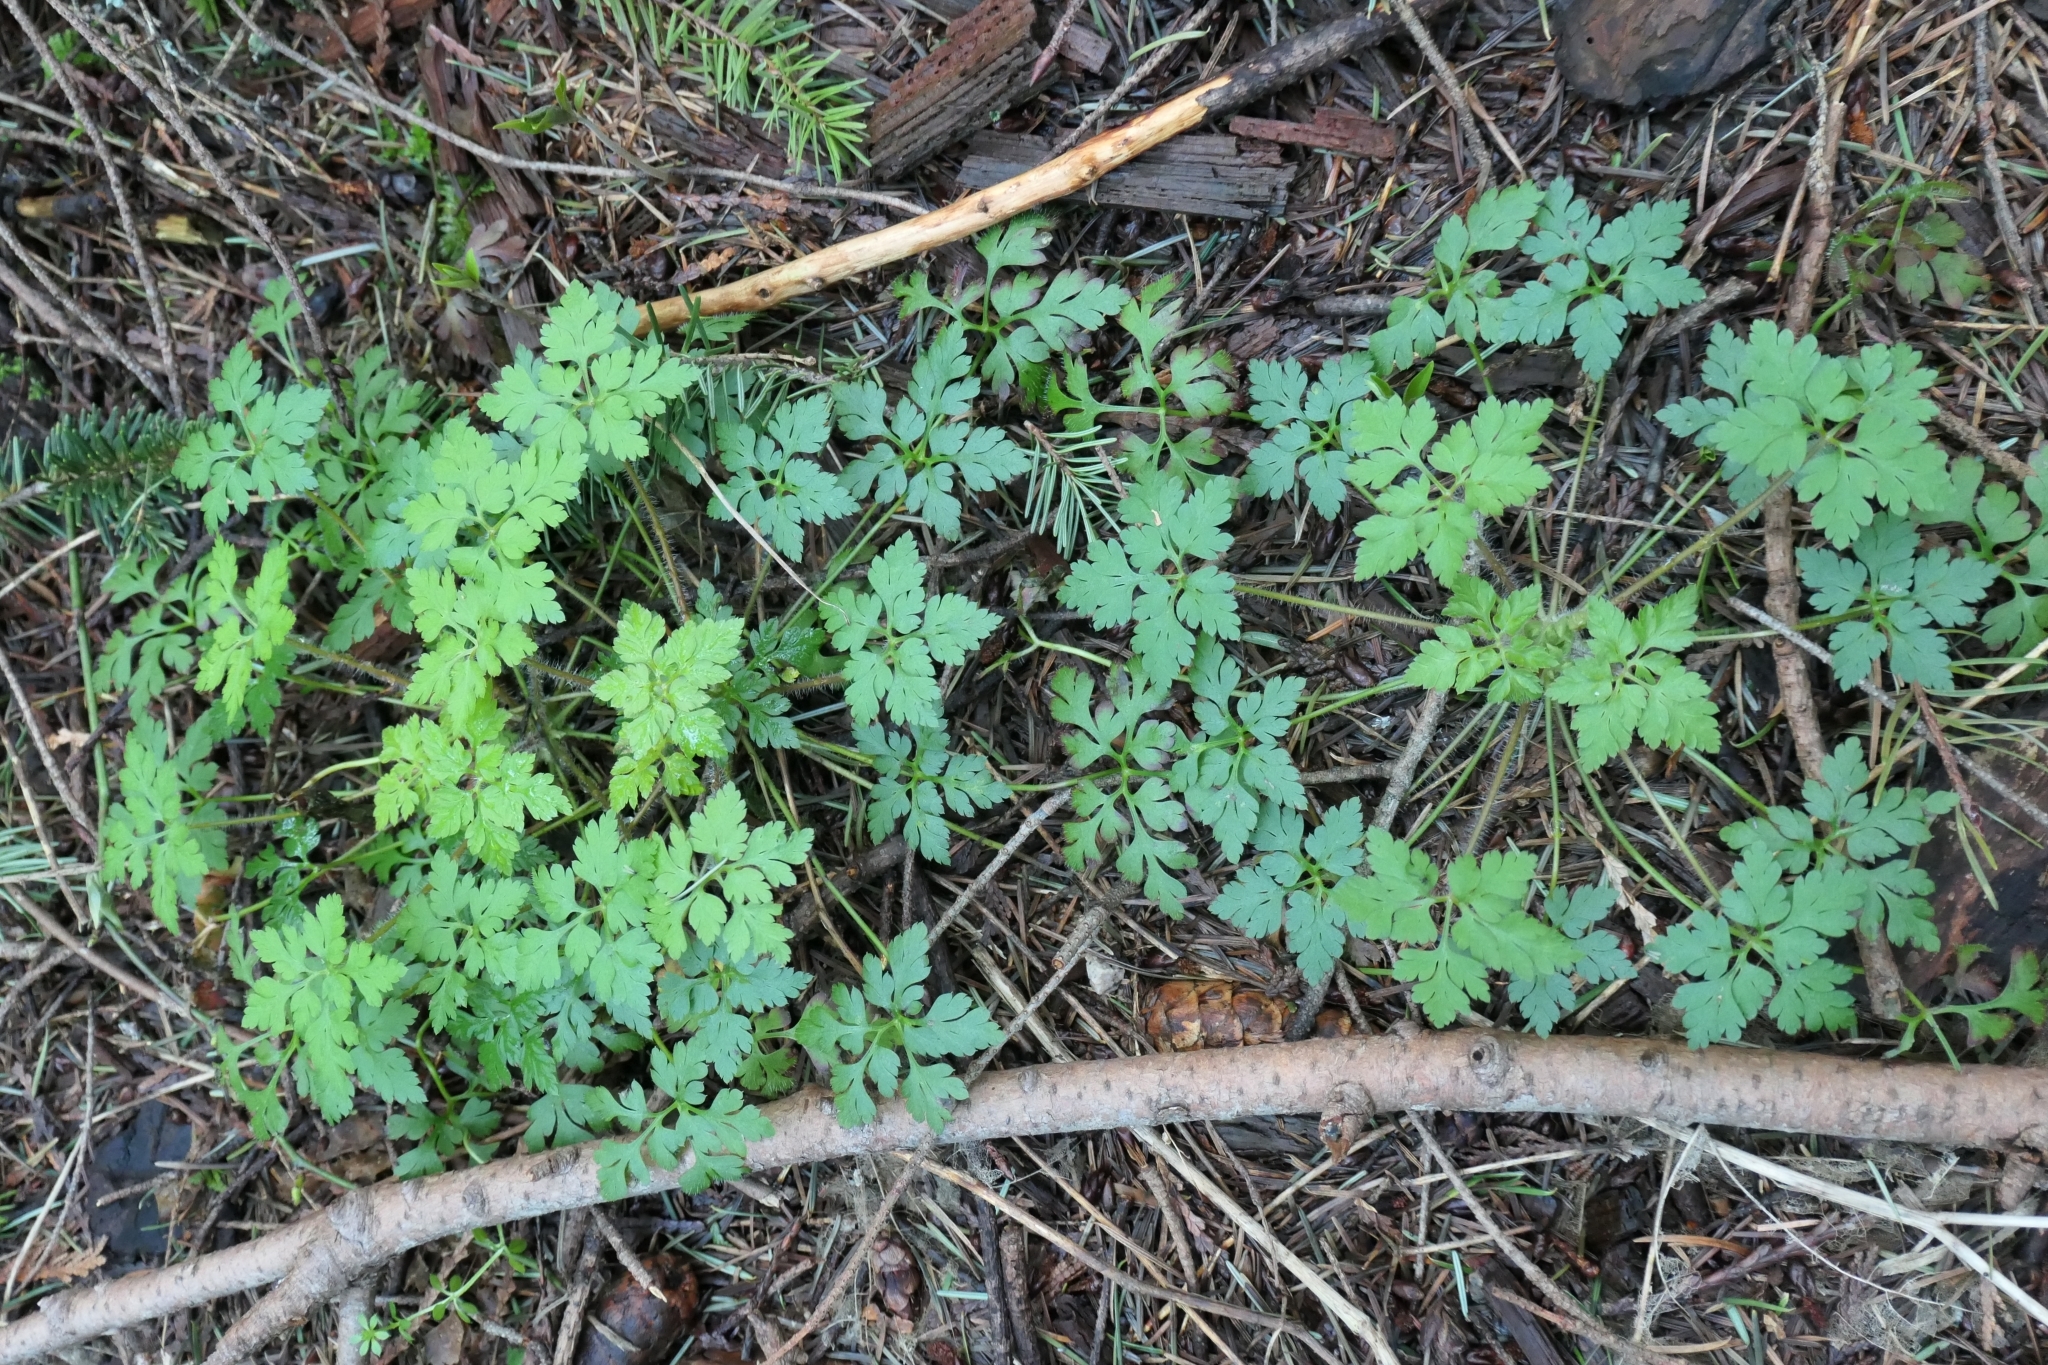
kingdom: Plantae
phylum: Tracheophyta
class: Magnoliopsida
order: Geraniales
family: Geraniaceae
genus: Geranium
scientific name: Geranium robertianum
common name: Herb-robert
